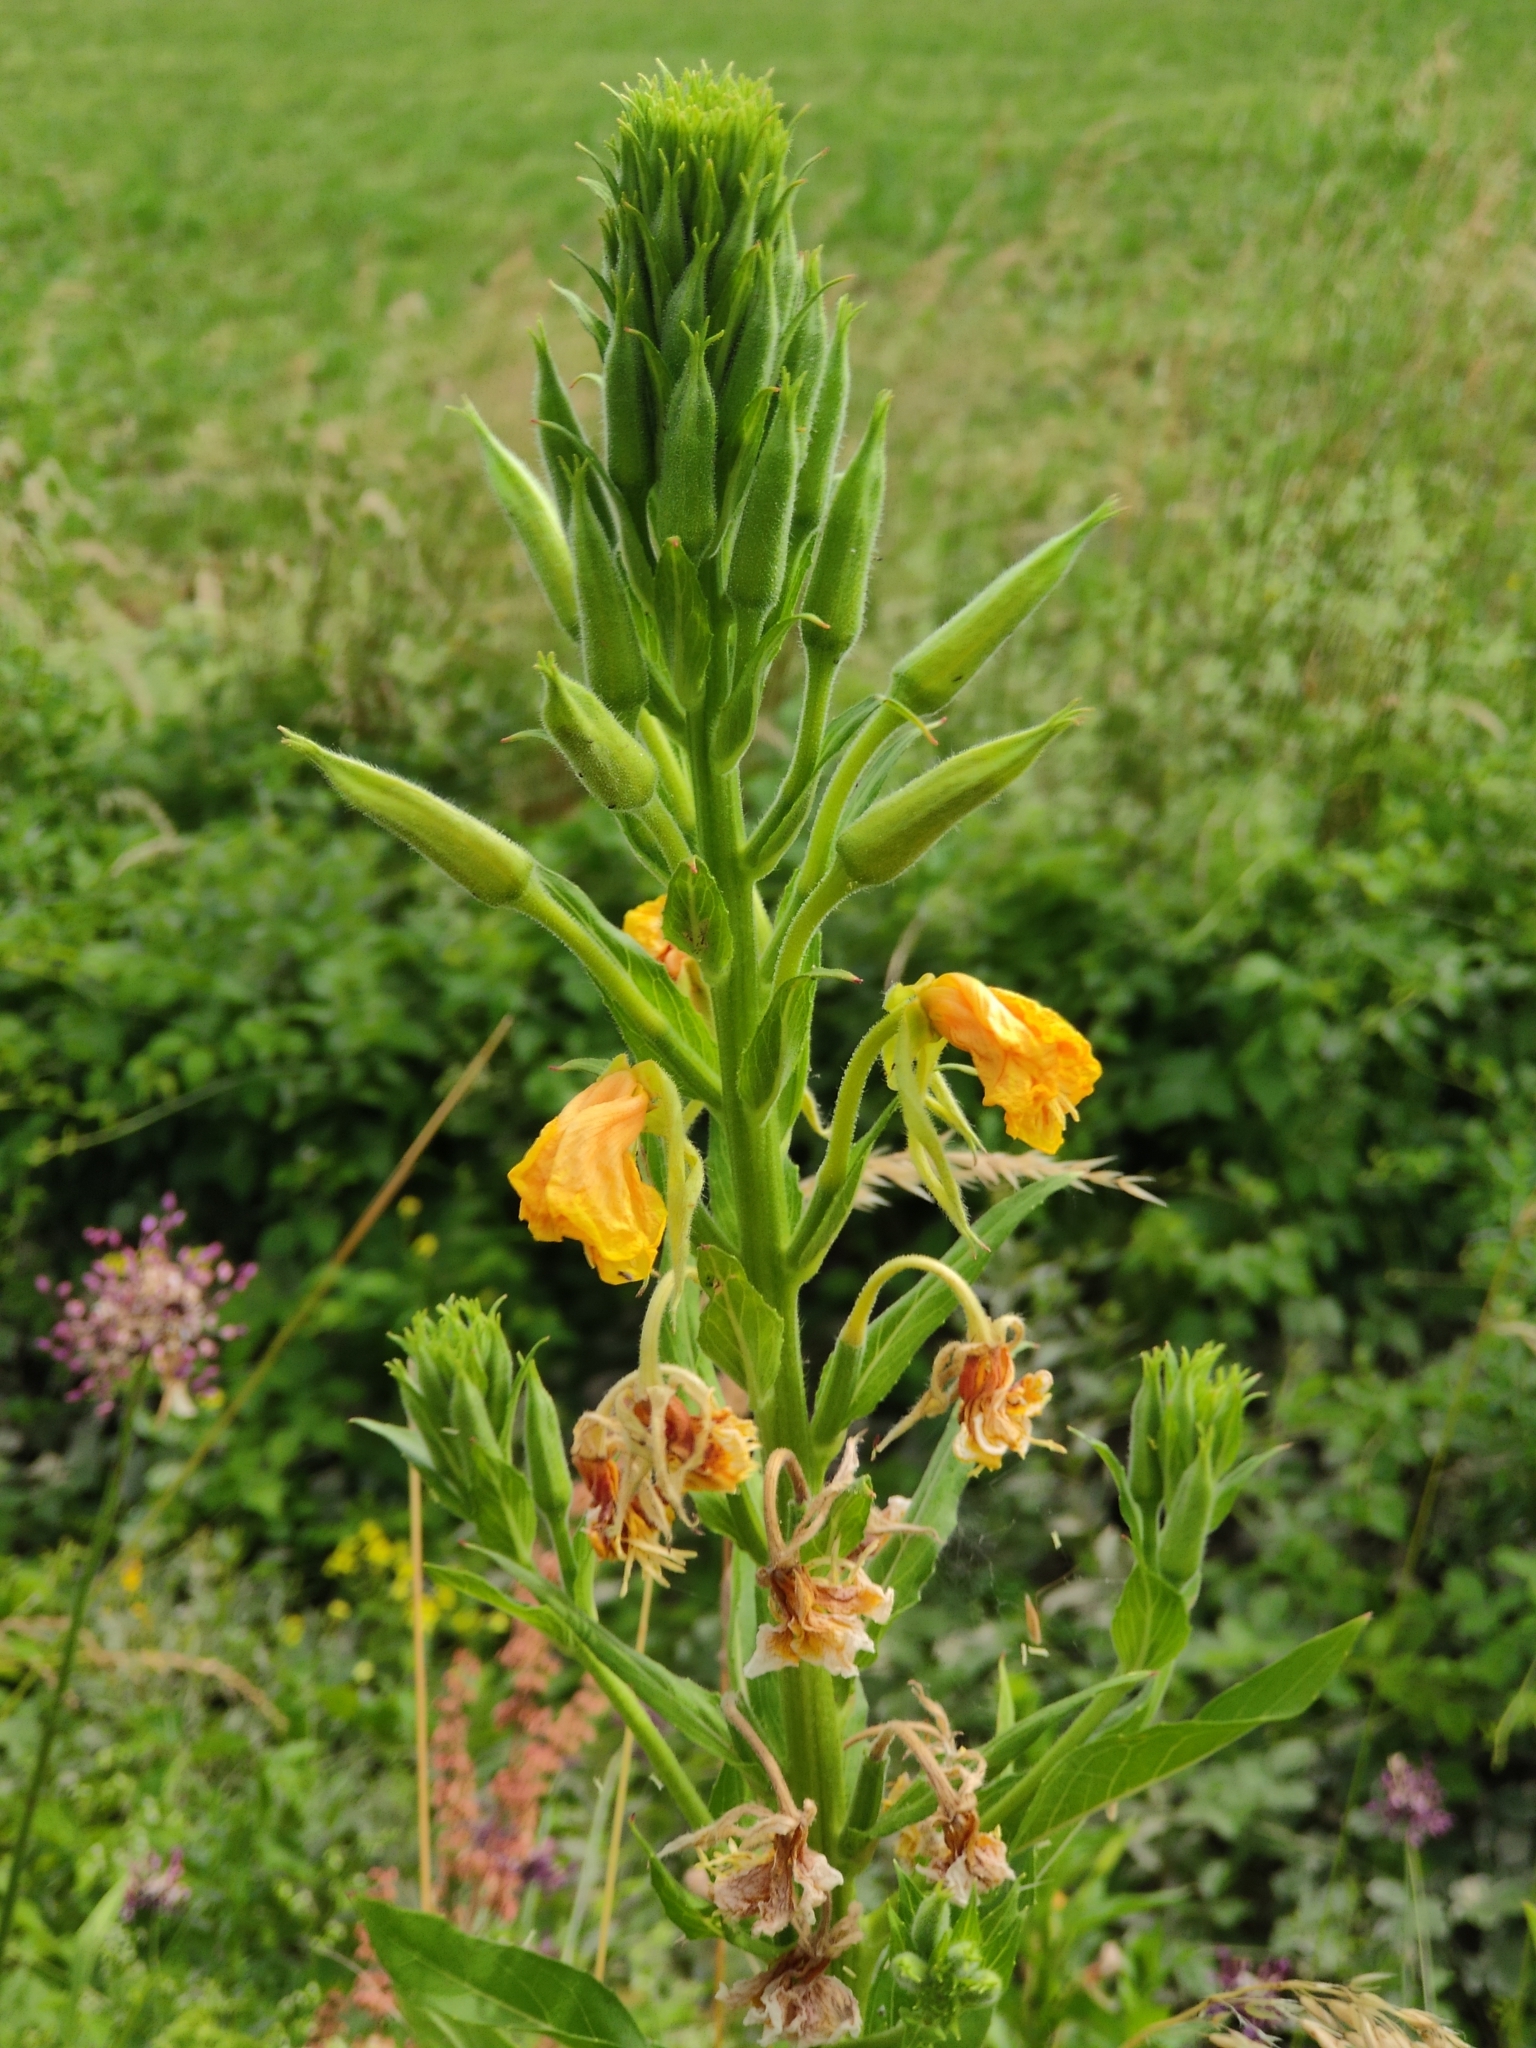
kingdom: Plantae
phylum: Tracheophyta
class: Magnoliopsida
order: Myrtales
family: Onagraceae
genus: Oenothera
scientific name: Oenothera biennis
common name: Common evening-primrose
